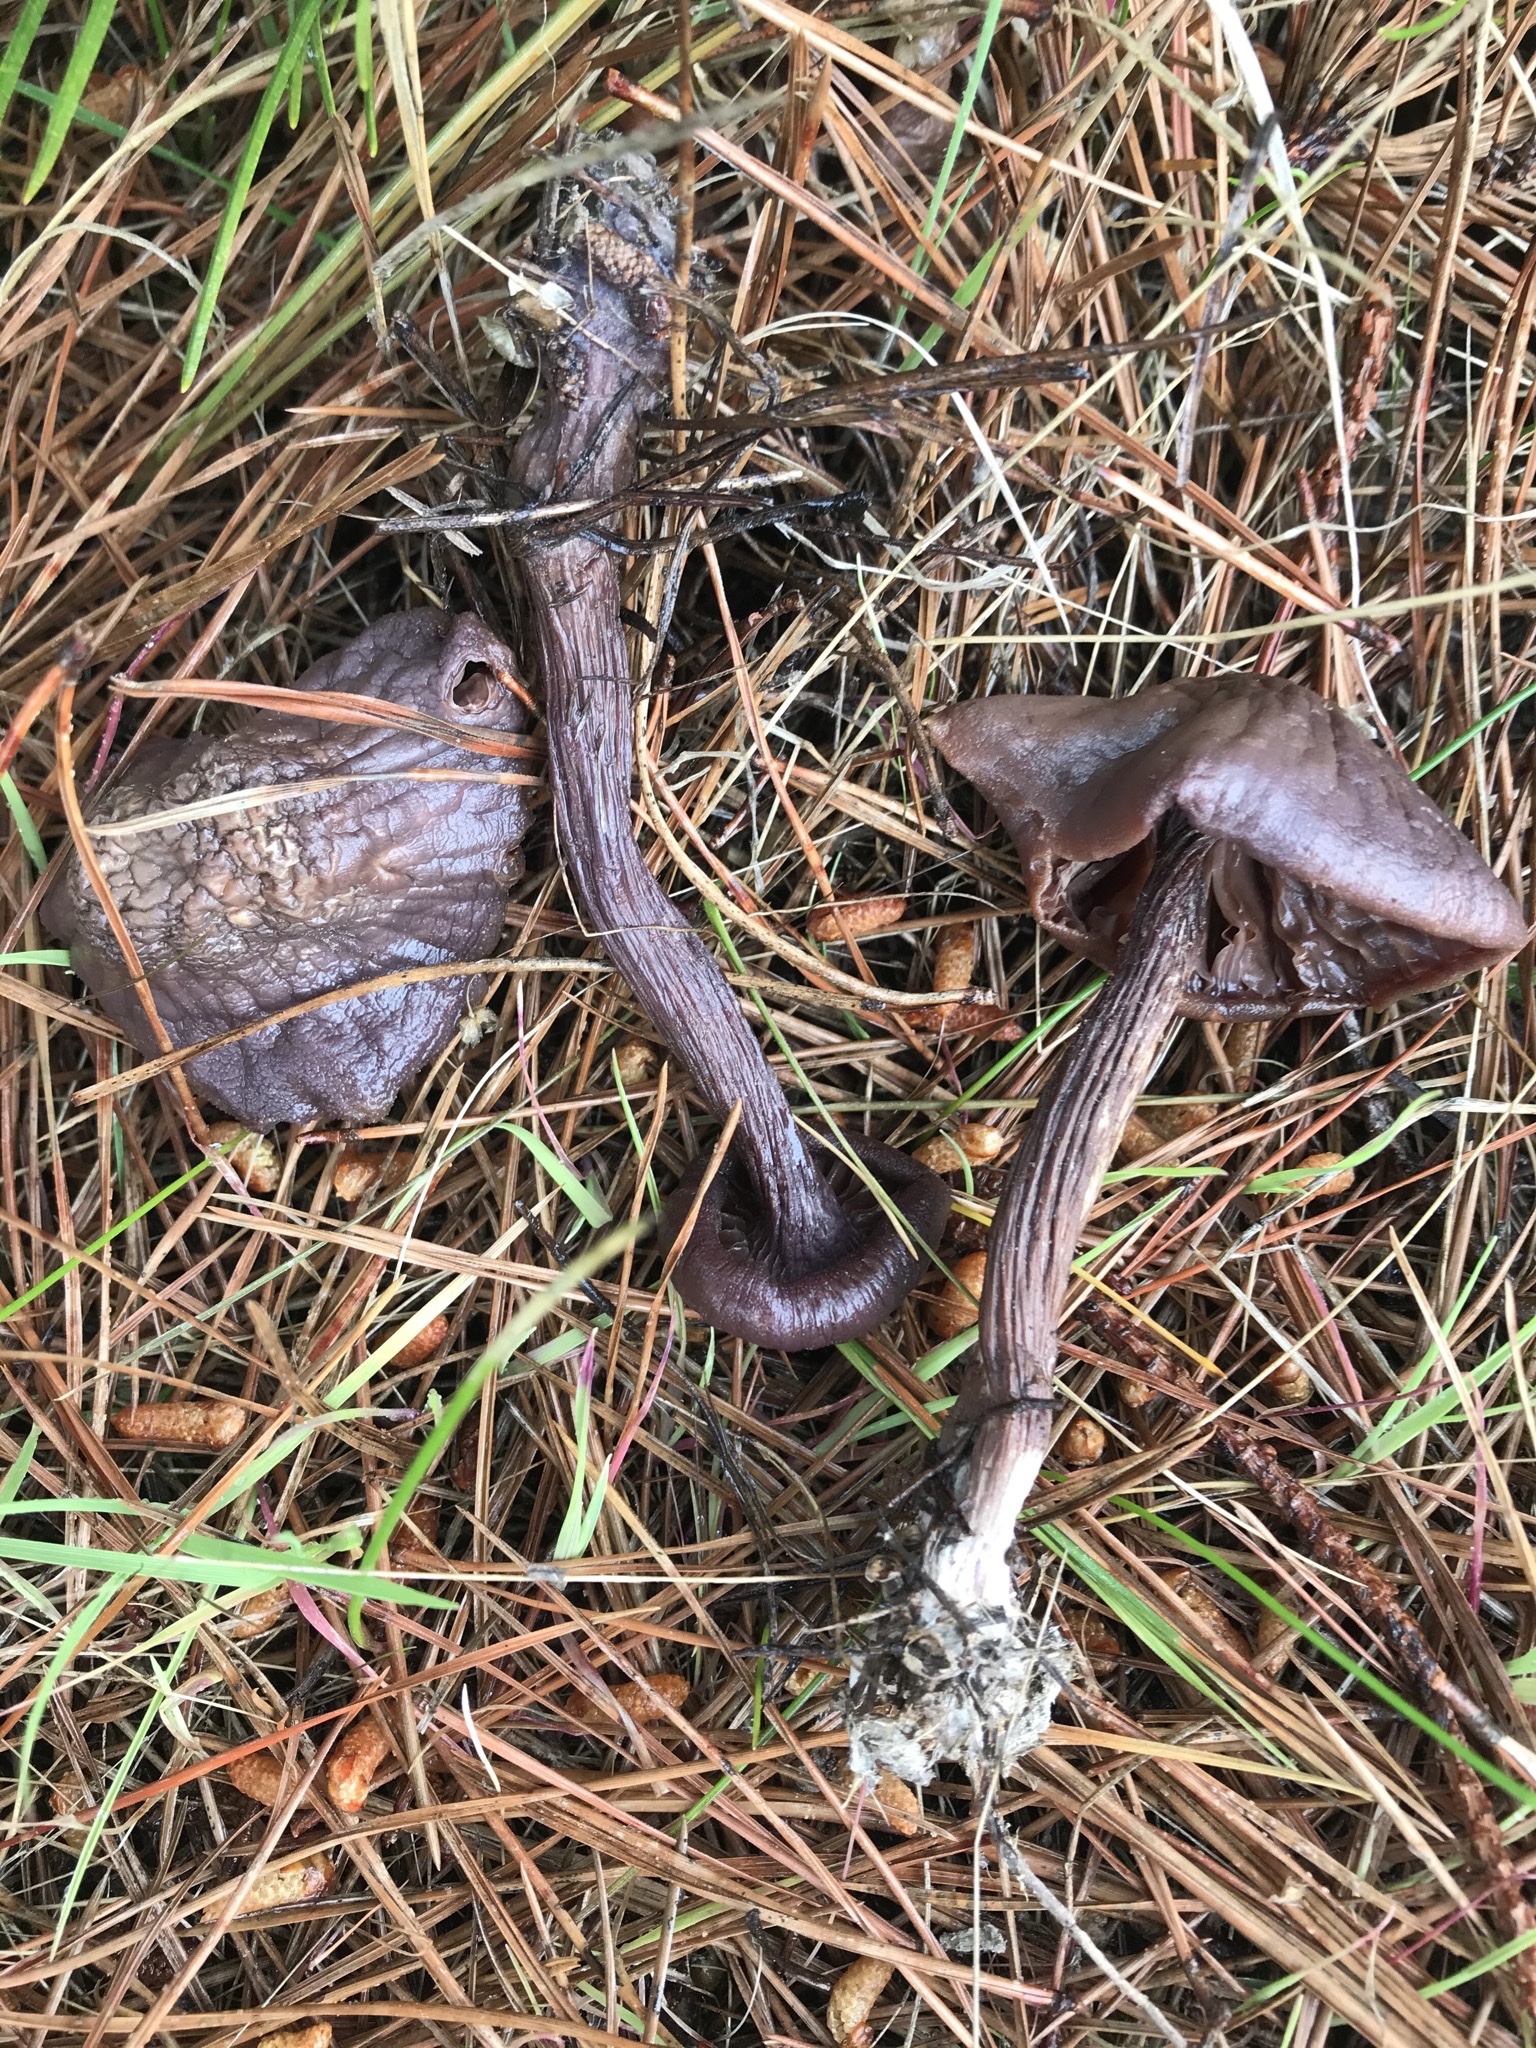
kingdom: Fungi
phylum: Basidiomycota
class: Agaricomycetes
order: Agaricales
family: Hydnangiaceae
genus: Laccaria
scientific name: Laccaria amethysteo-occidentalis
